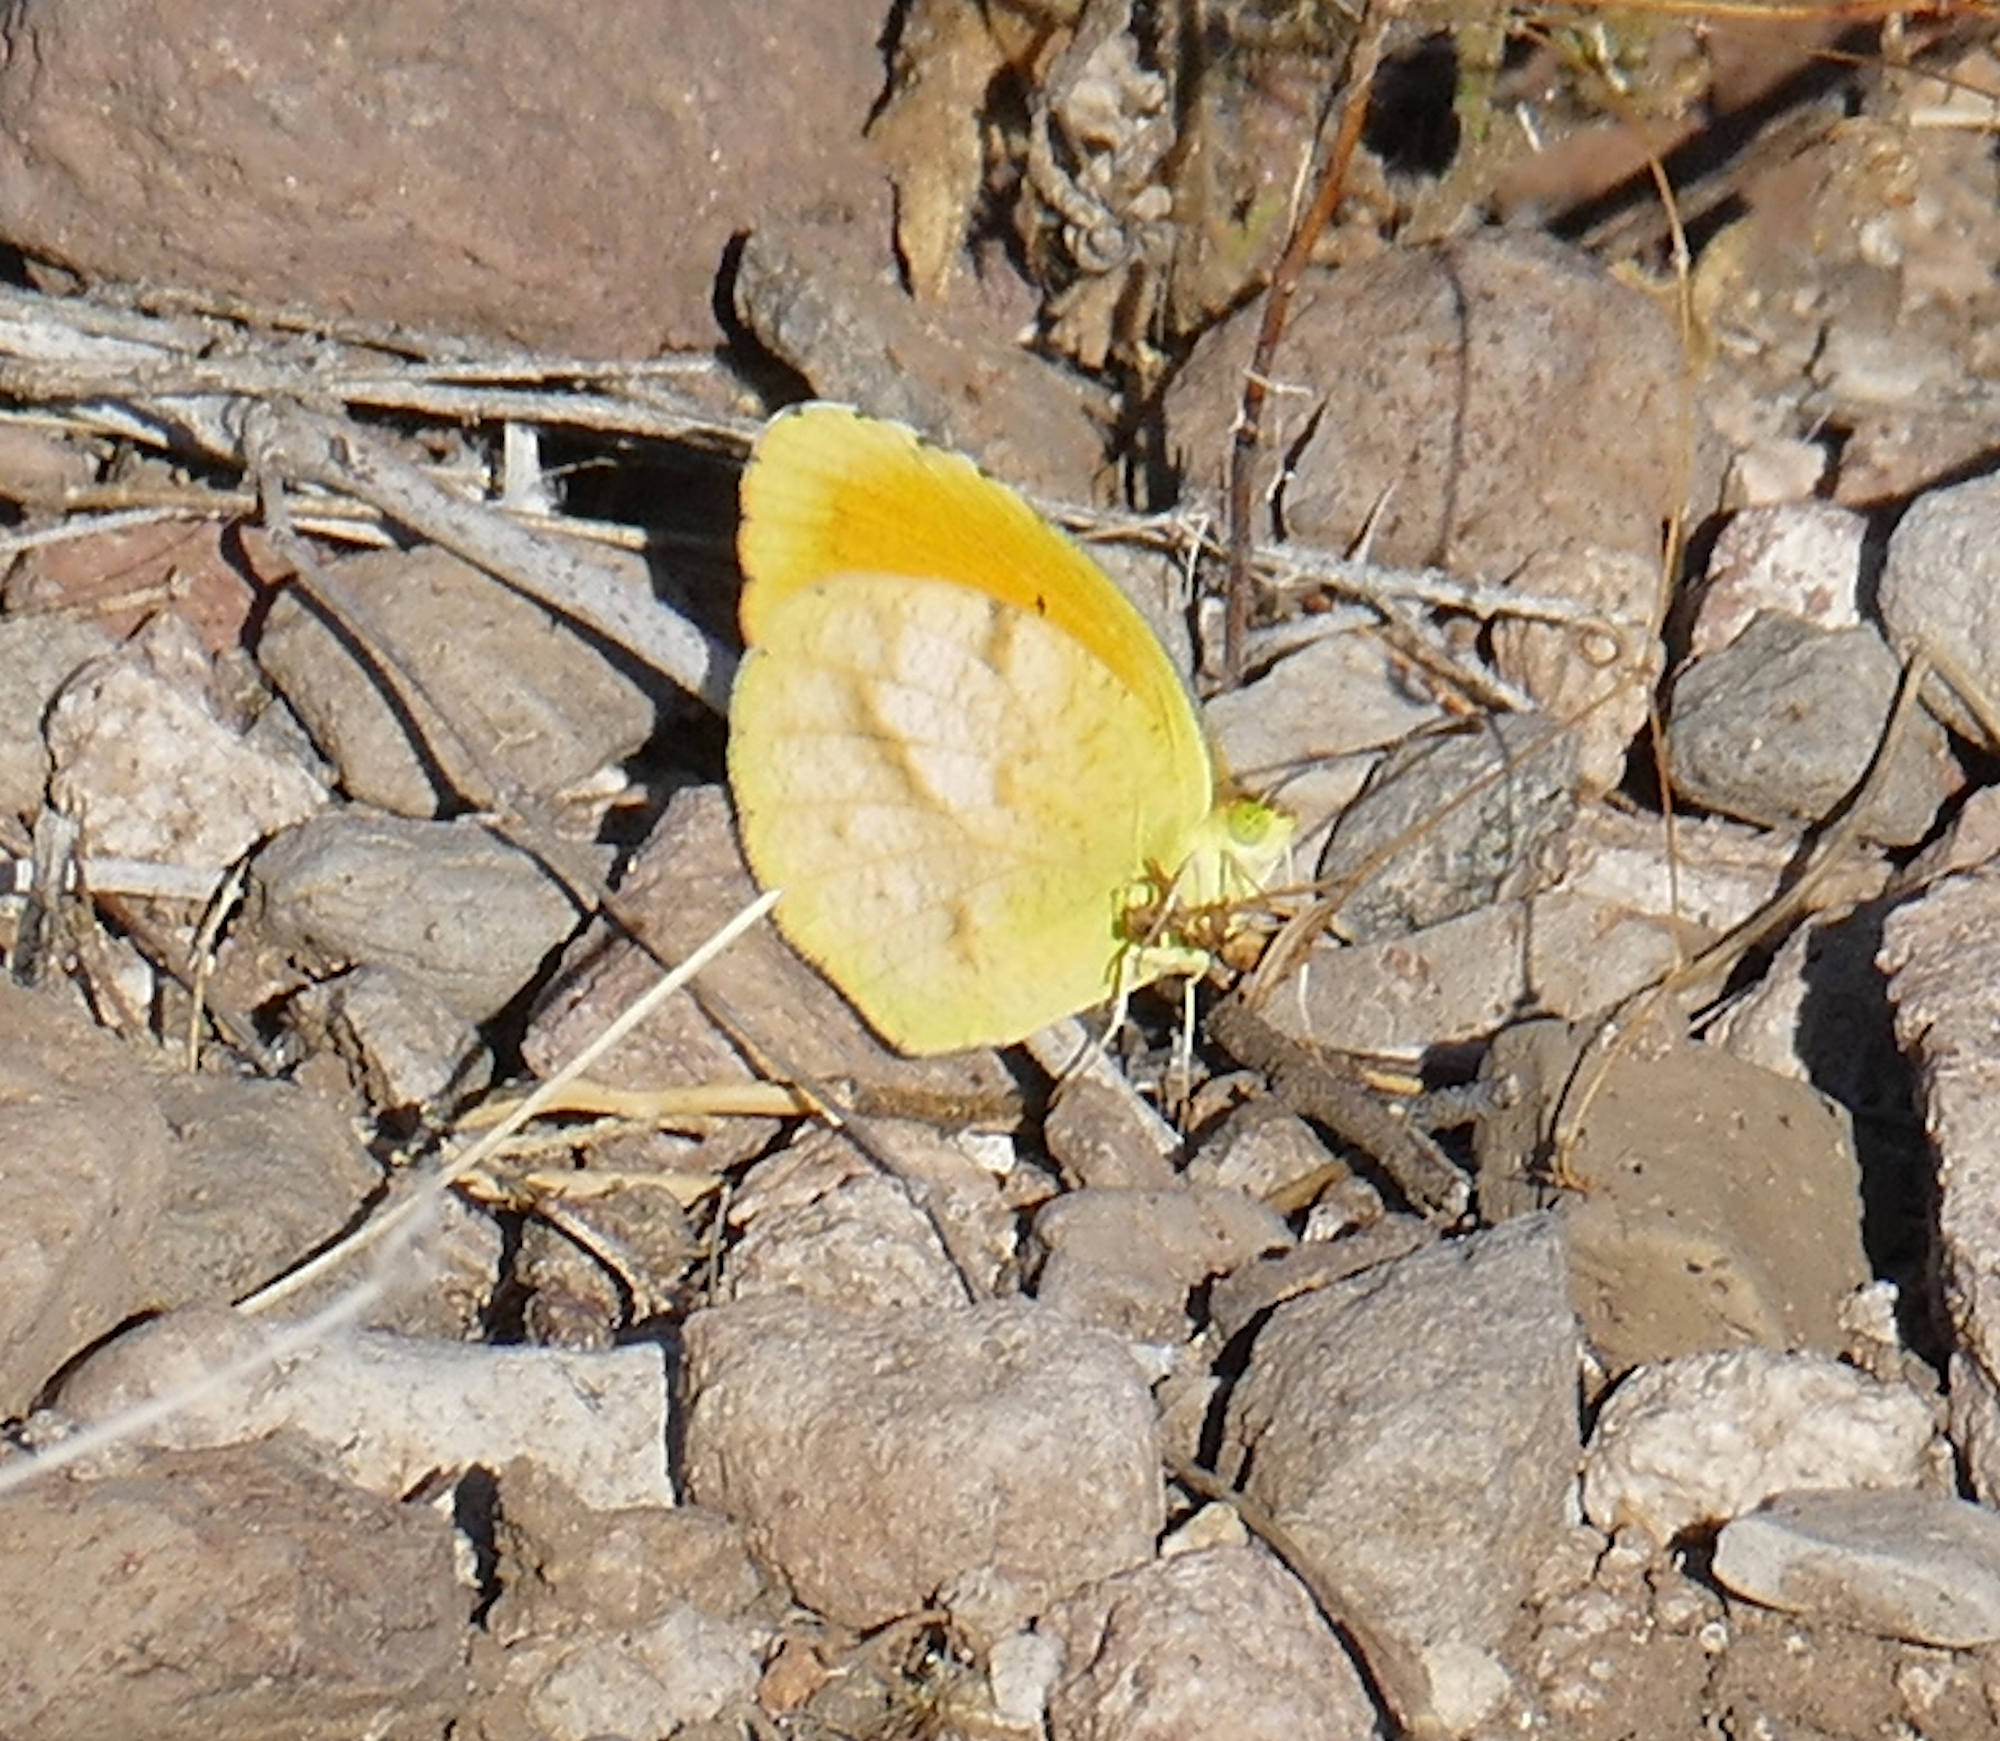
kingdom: Animalia
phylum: Arthropoda
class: Insecta
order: Lepidoptera
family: Pieridae
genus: Abaeis
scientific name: Abaeis nicippe
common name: Sleepy orange
